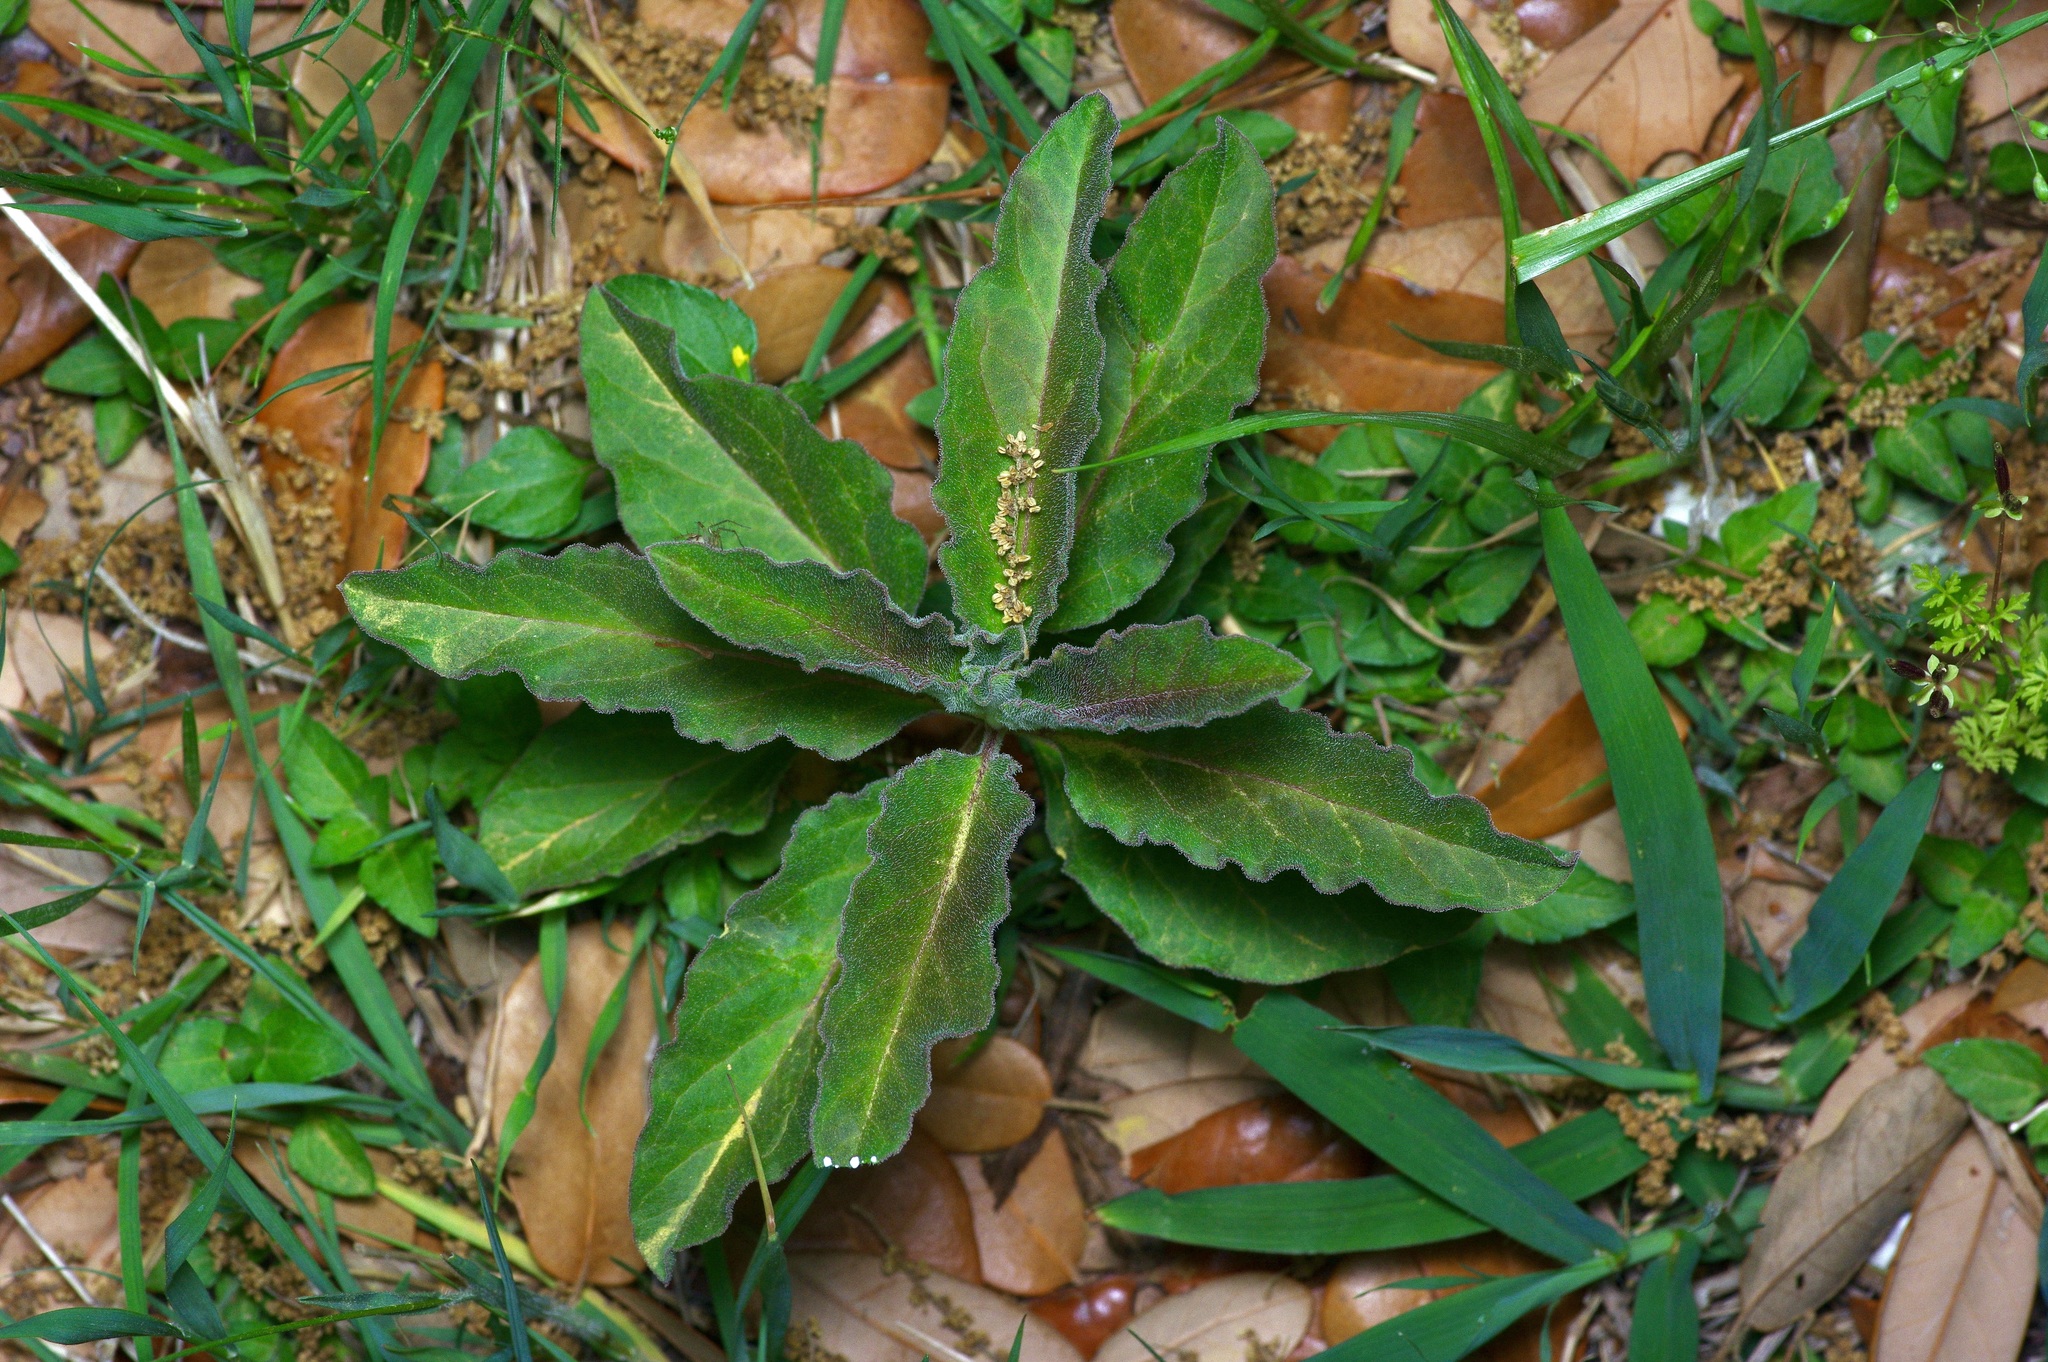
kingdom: Plantae
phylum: Tracheophyta
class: Magnoliopsida
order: Gentianales
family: Apocynaceae
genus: Asclepias
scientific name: Asclepias oenotheroides
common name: Zizotes milkweed
